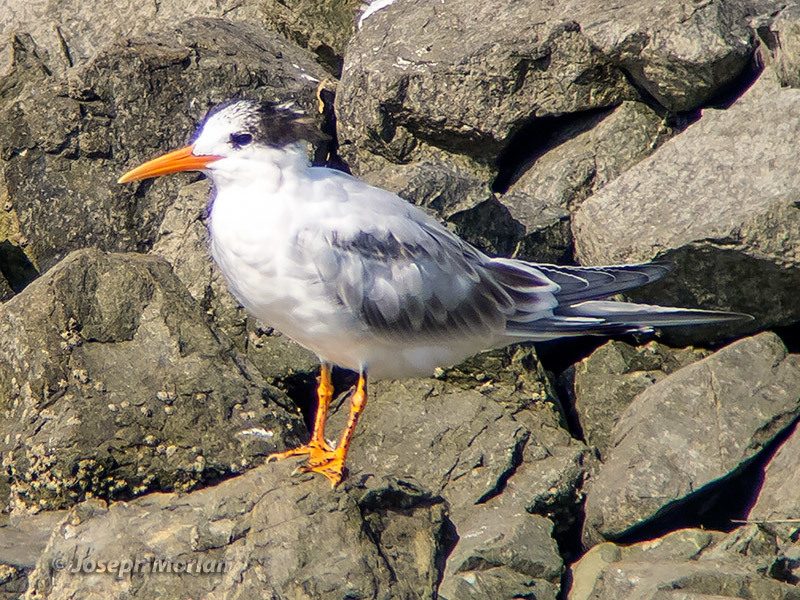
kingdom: Animalia
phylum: Chordata
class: Aves
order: Charadriiformes
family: Laridae
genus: Thalasseus
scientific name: Thalasseus elegans
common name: Elegant tern
